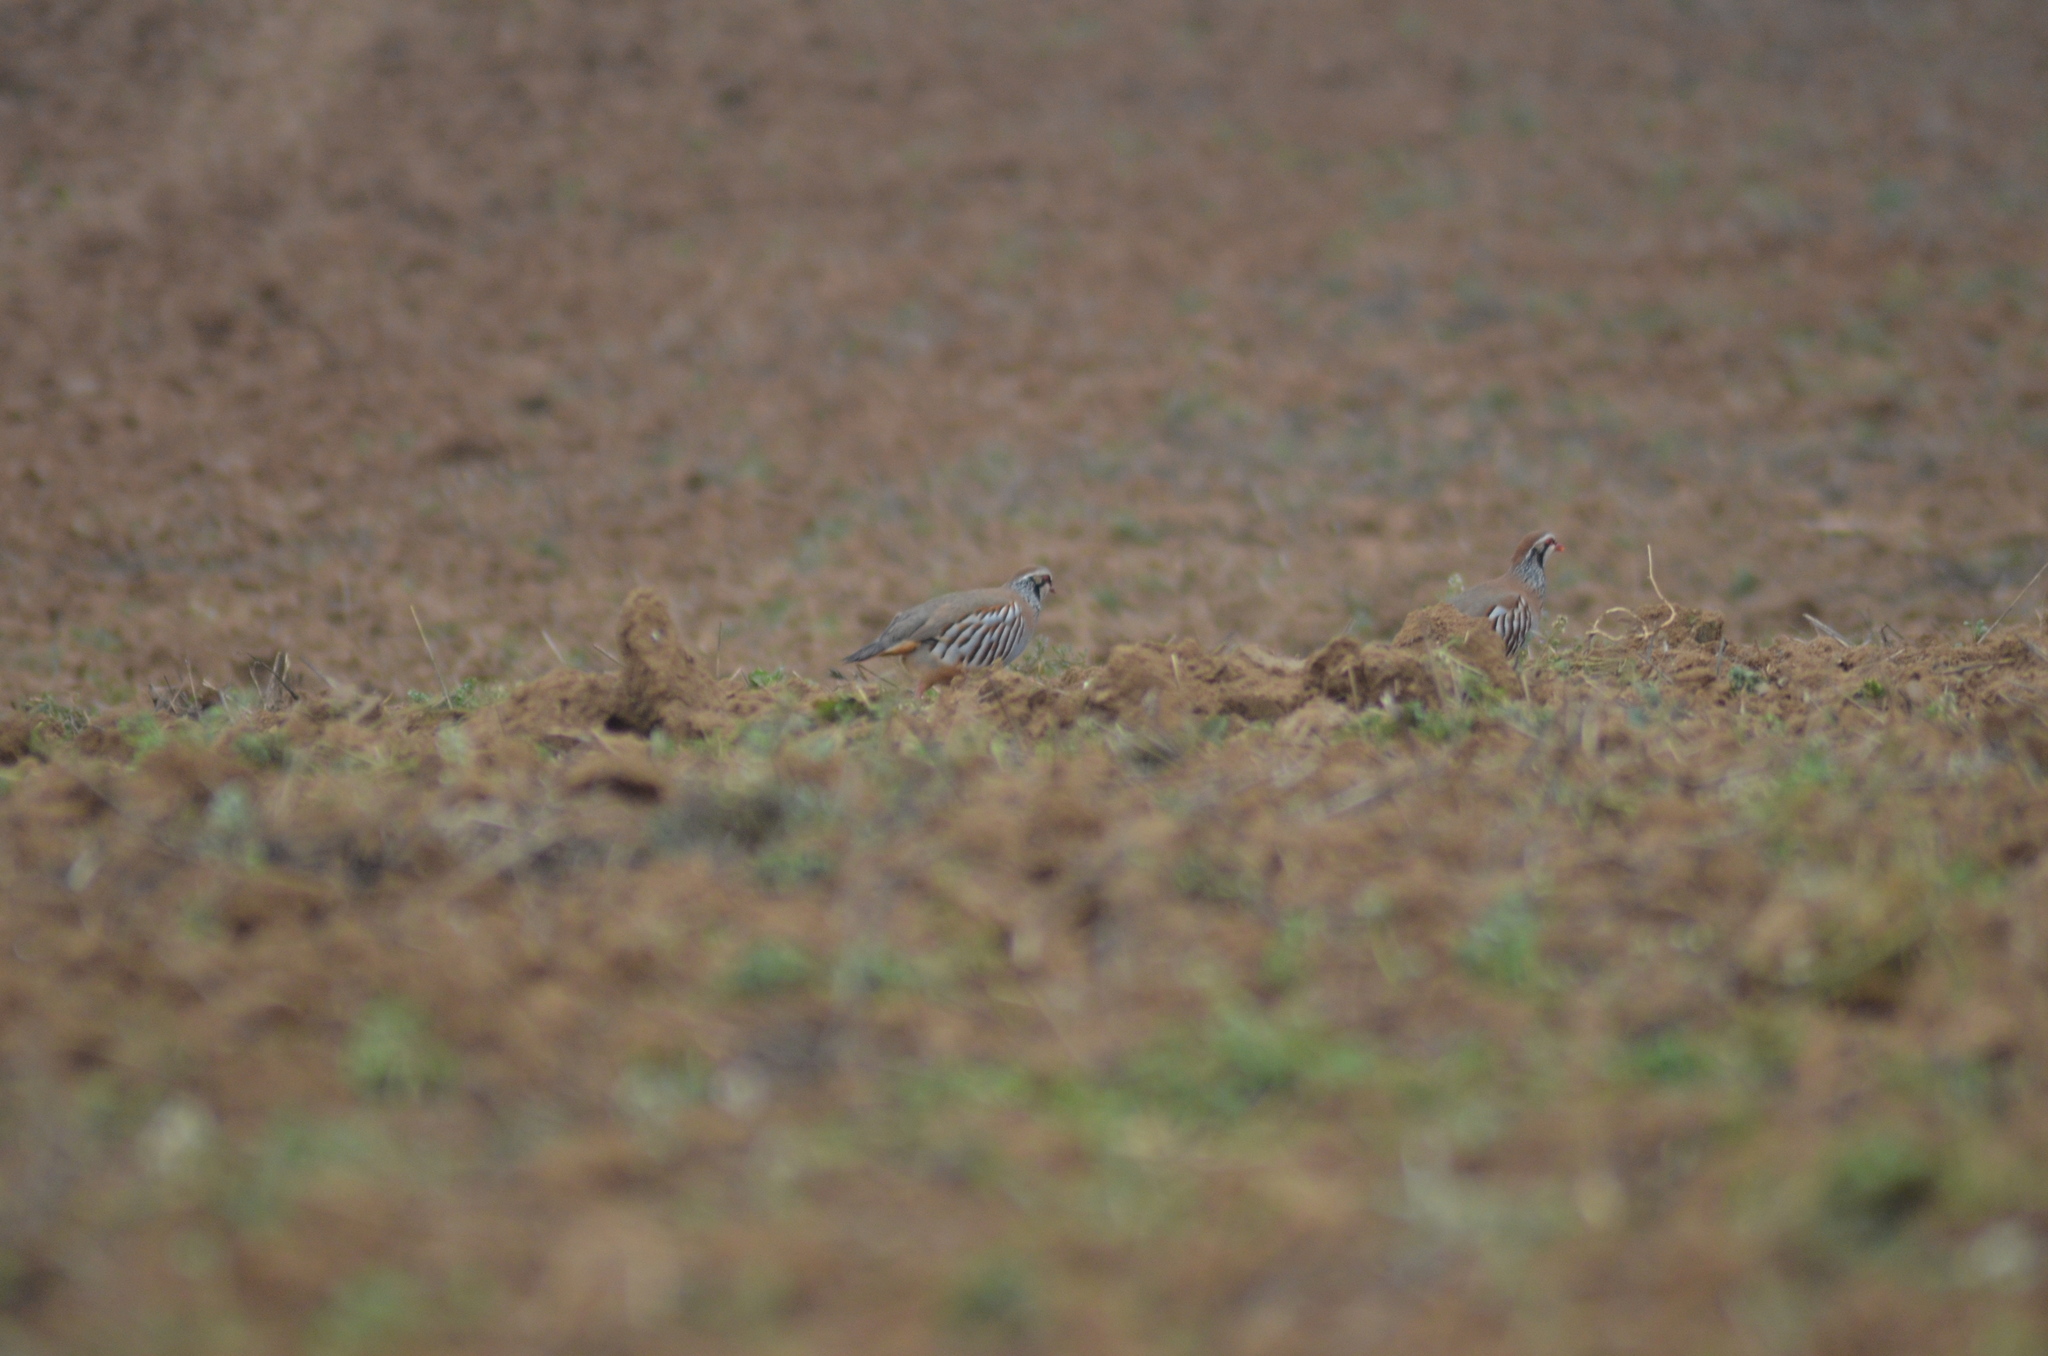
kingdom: Animalia
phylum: Chordata
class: Aves
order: Galliformes
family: Phasianidae
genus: Alectoris
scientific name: Alectoris rufa
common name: Red-legged partridge
